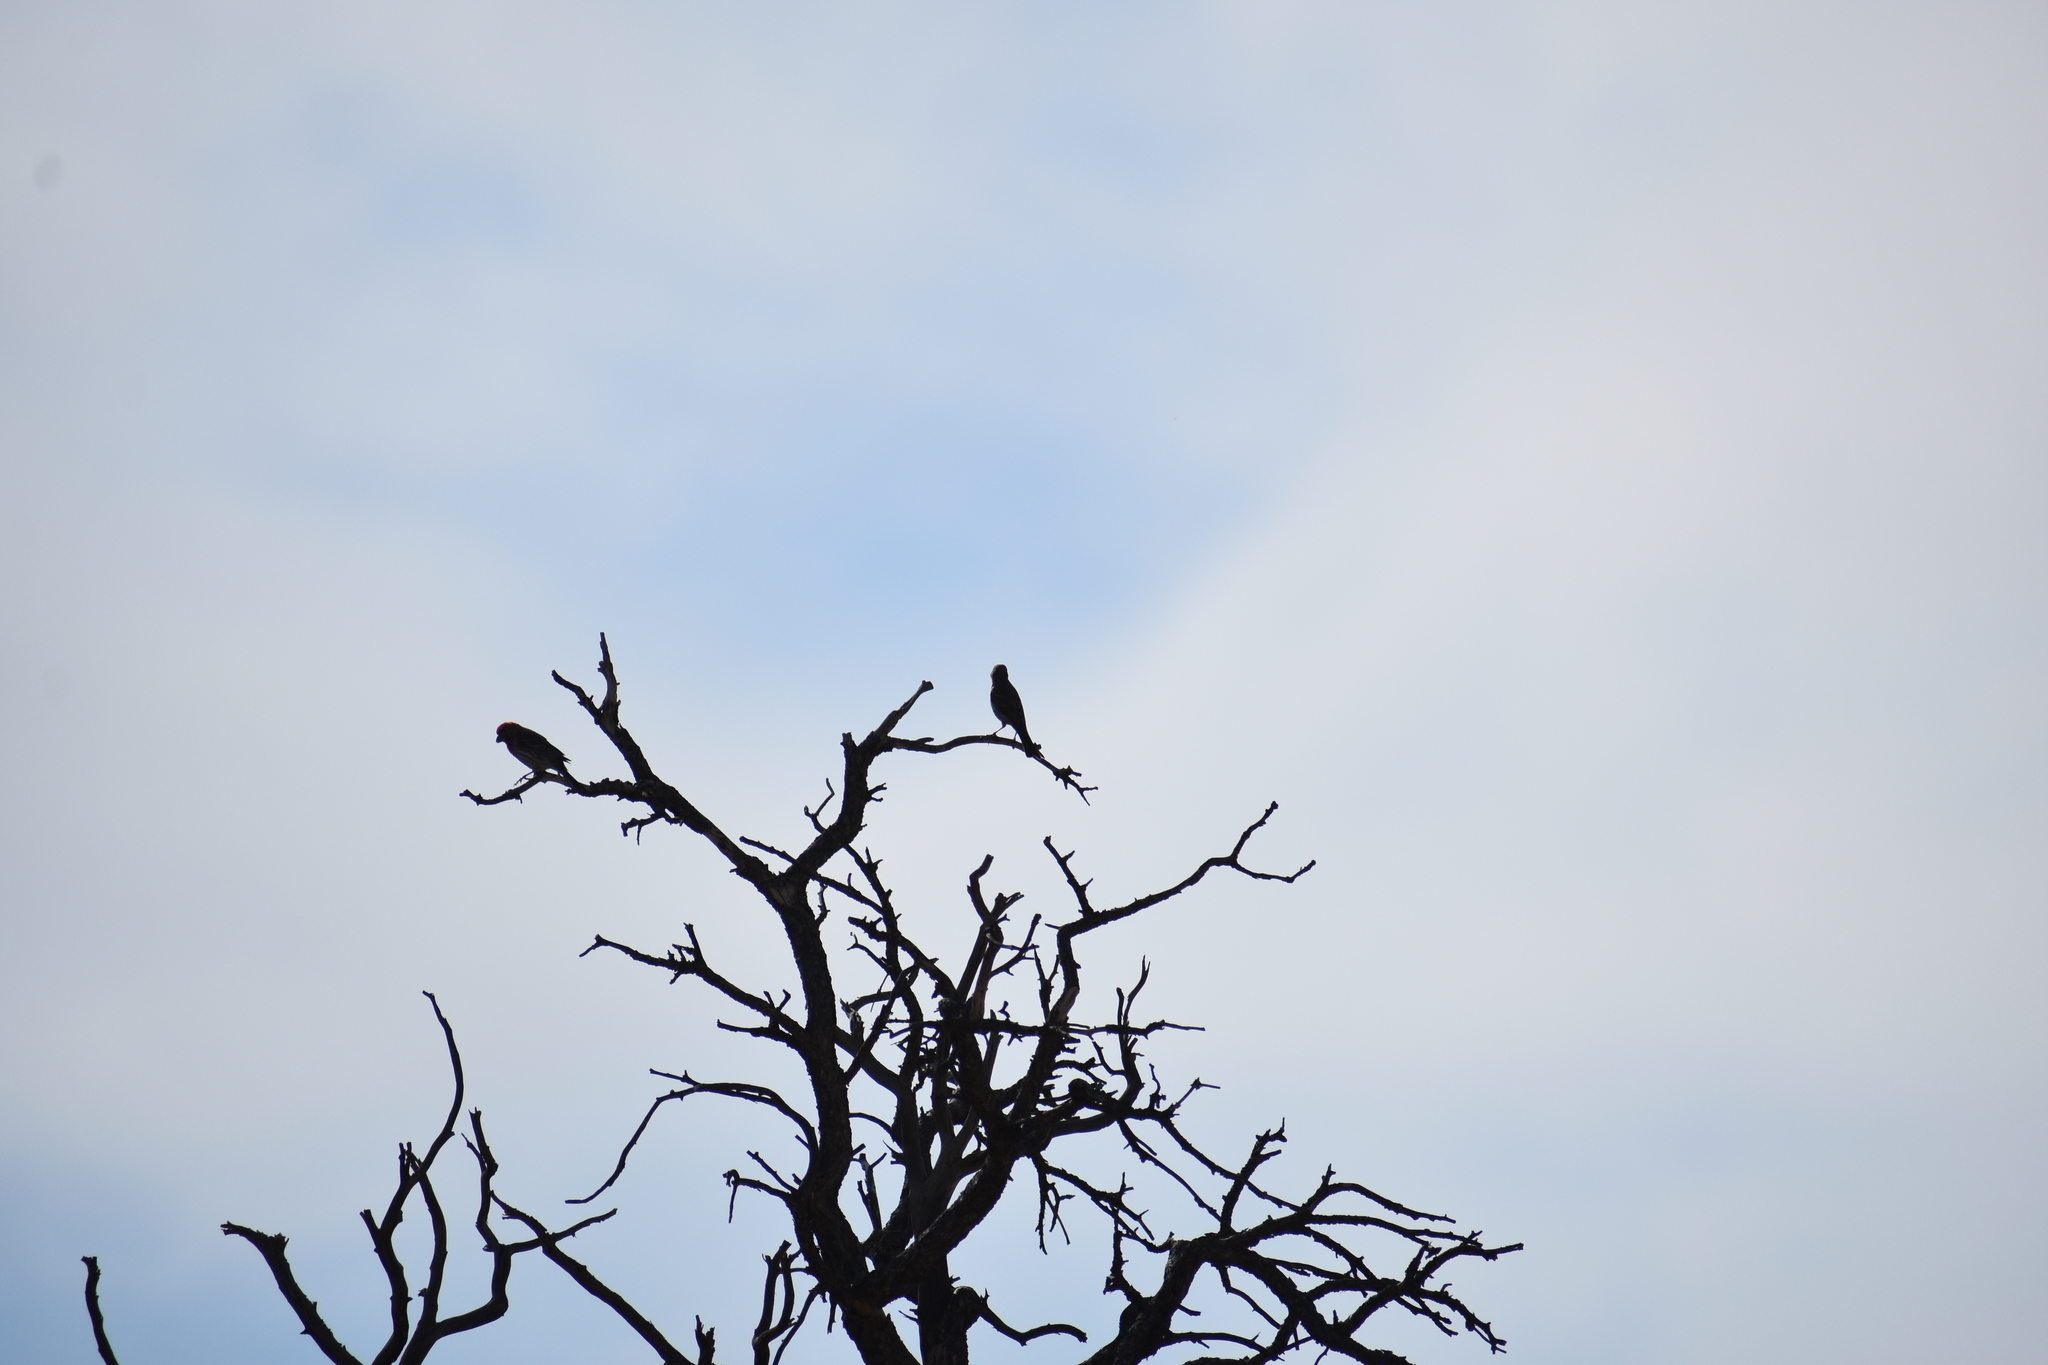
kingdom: Animalia
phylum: Chordata
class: Aves
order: Passeriformes
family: Fringillidae
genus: Haemorhous
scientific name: Haemorhous mexicanus
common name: House finch
